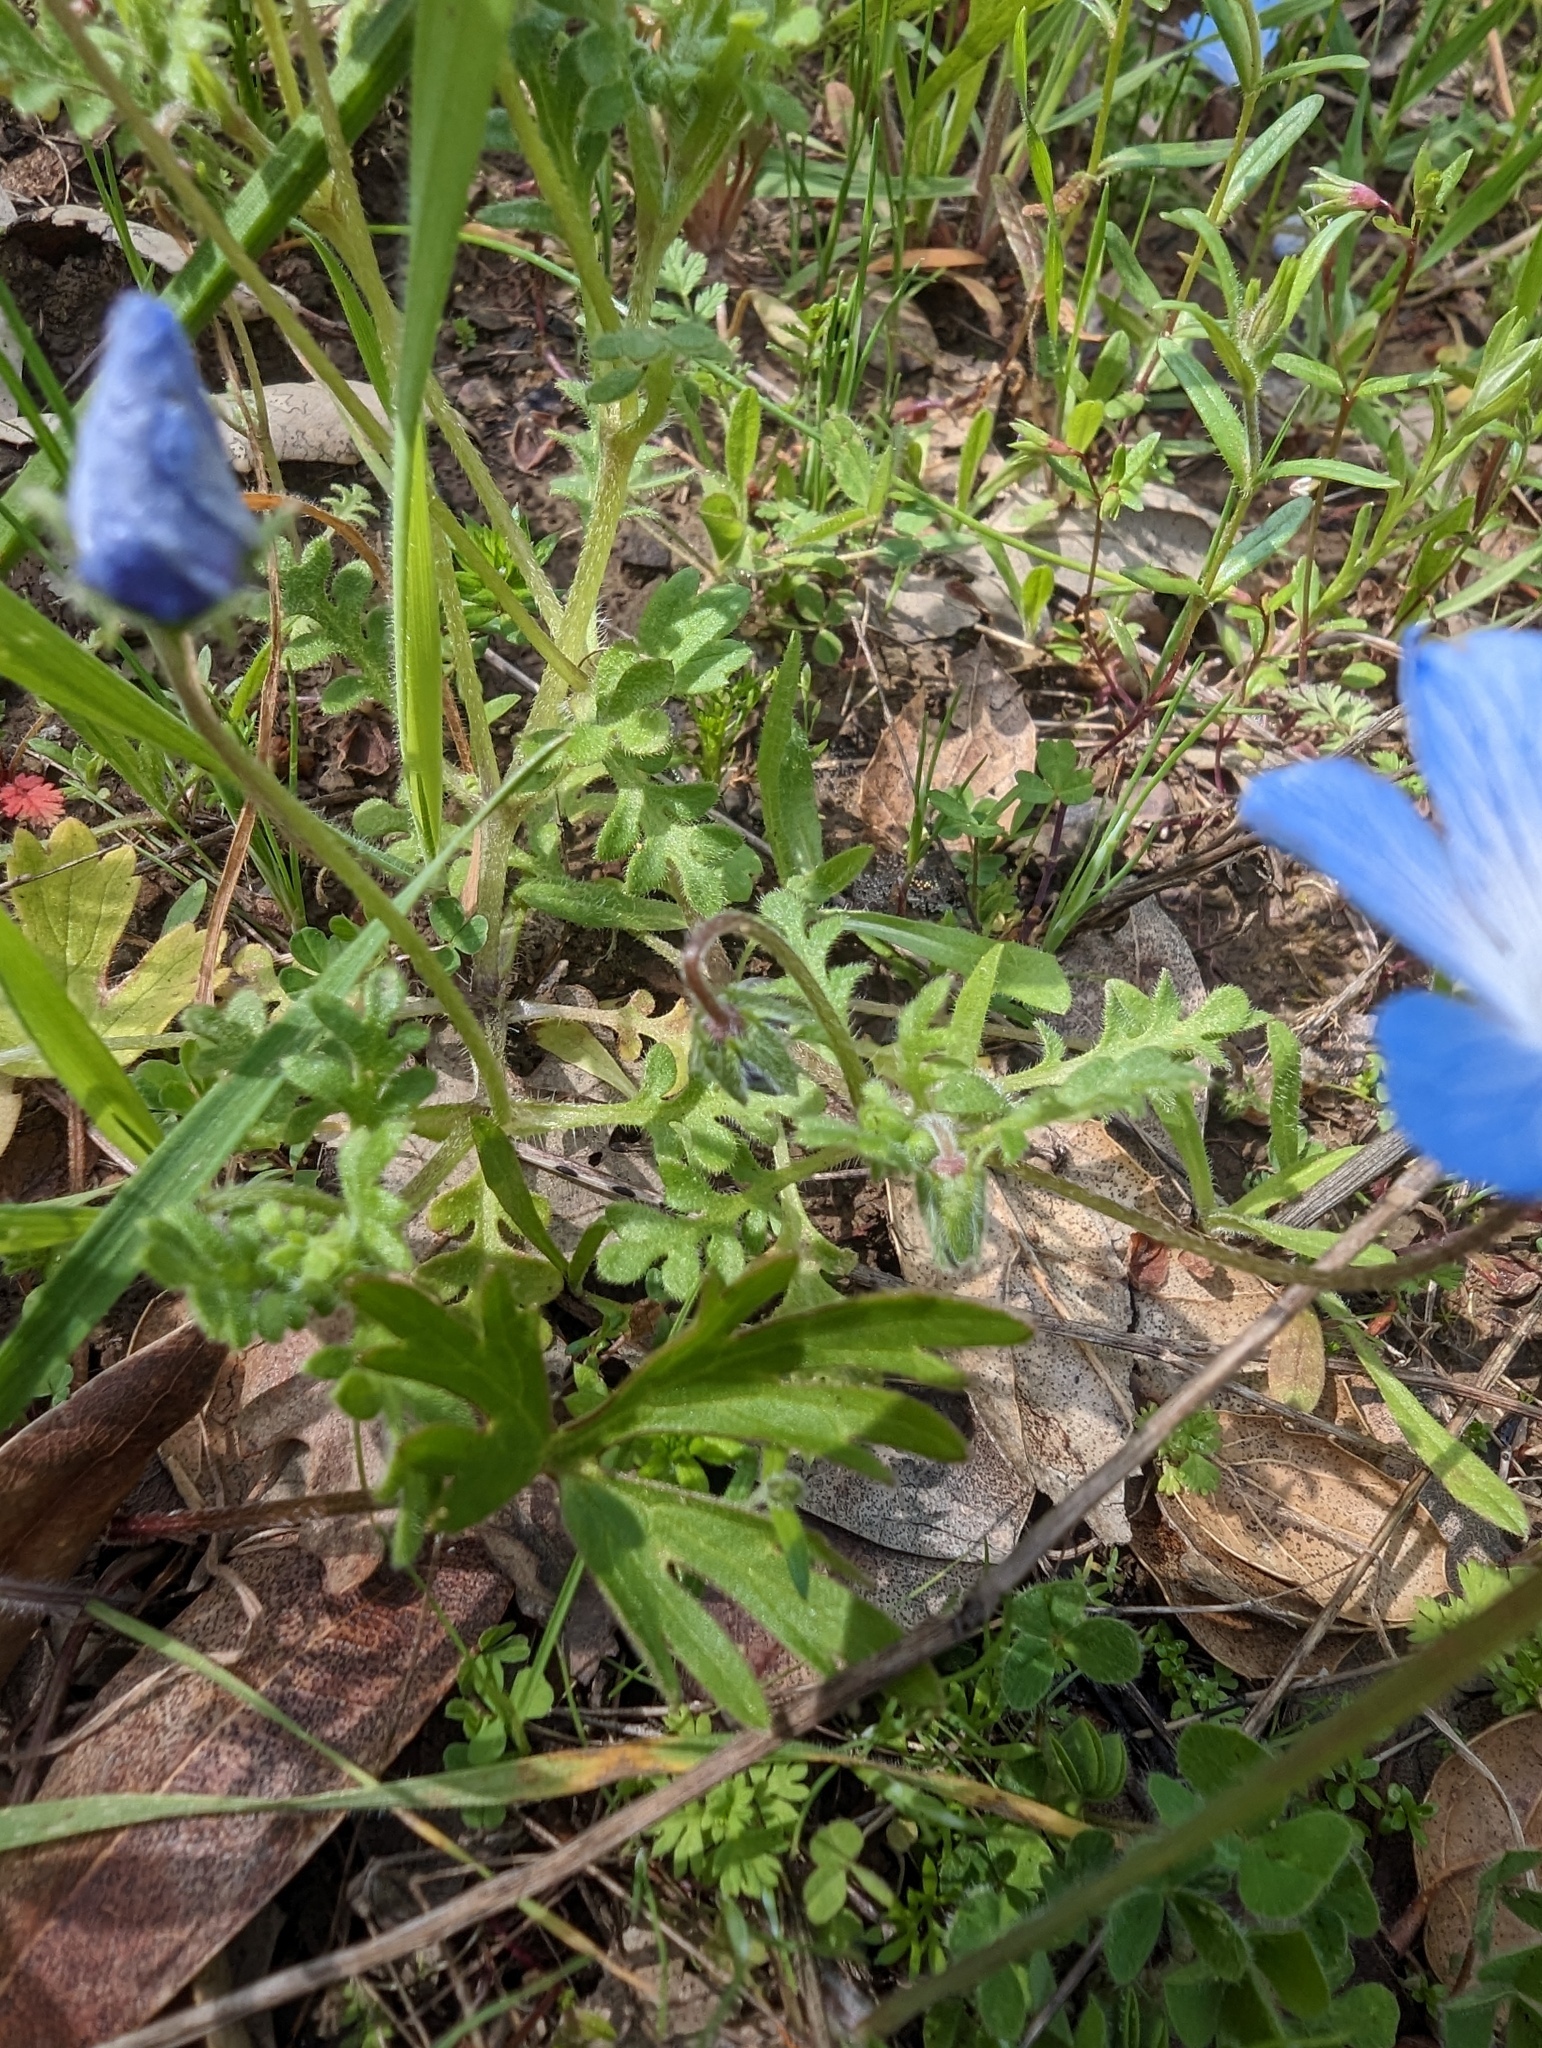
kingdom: Plantae
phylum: Tracheophyta
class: Magnoliopsida
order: Boraginales
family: Hydrophyllaceae
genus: Nemophila
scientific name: Nemophila menziesii
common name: Baby's-blue-eyes
